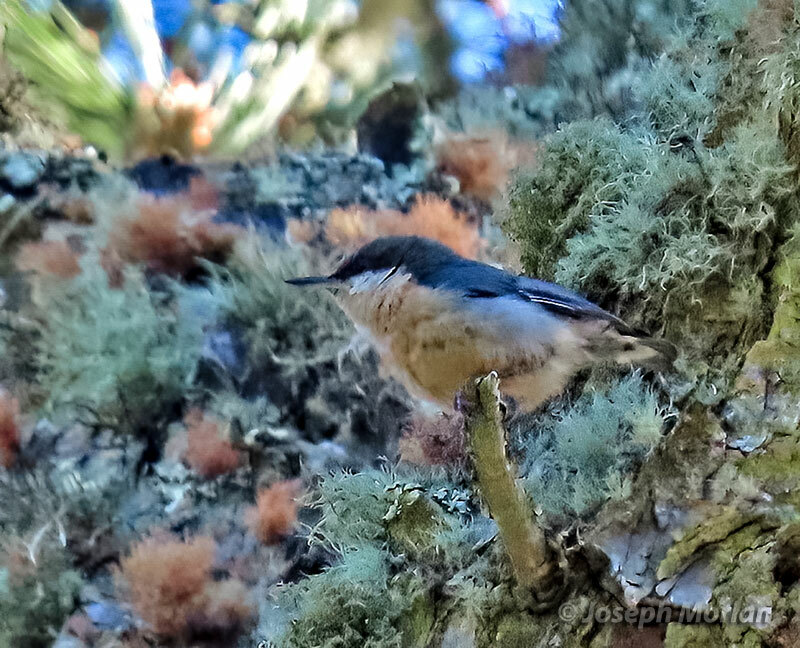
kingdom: Animalia
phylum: Chordata
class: Aves
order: Passeriformes
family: Sittidae
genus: Sitta
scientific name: Sitta pygmaea
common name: Pygmy nuthatch
